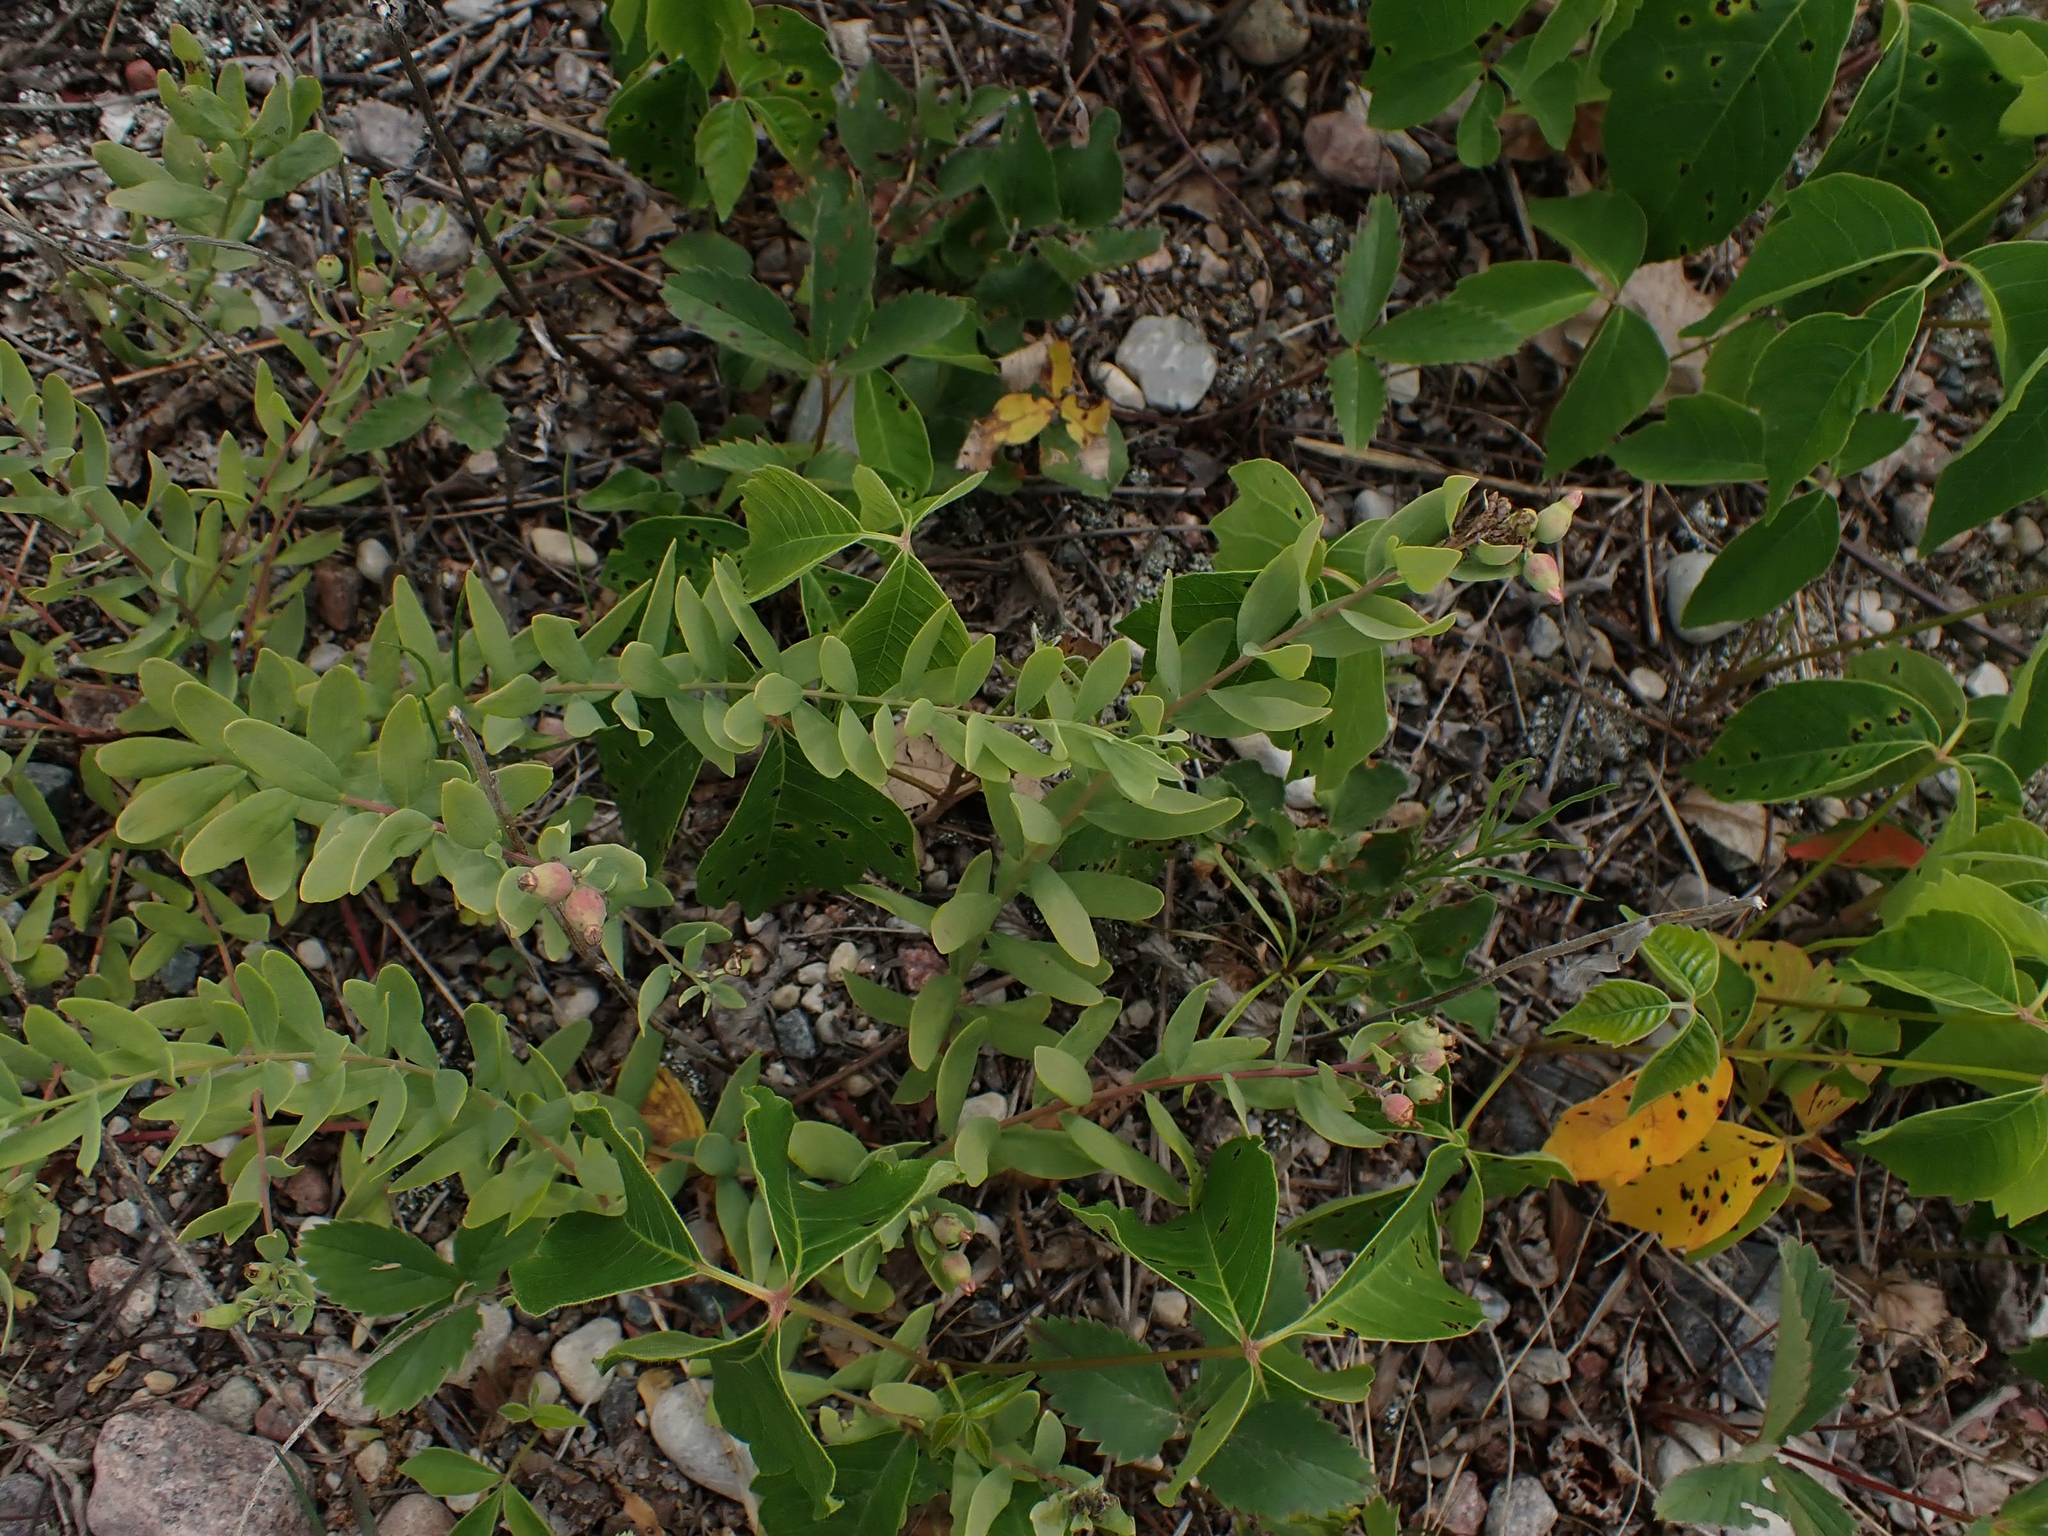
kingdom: Plantae
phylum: Tracheophyta
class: Magnoliopsida
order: Santalales
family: Comandraceae
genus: Comandra
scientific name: Comandra umbellata
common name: Bastard toadflax
